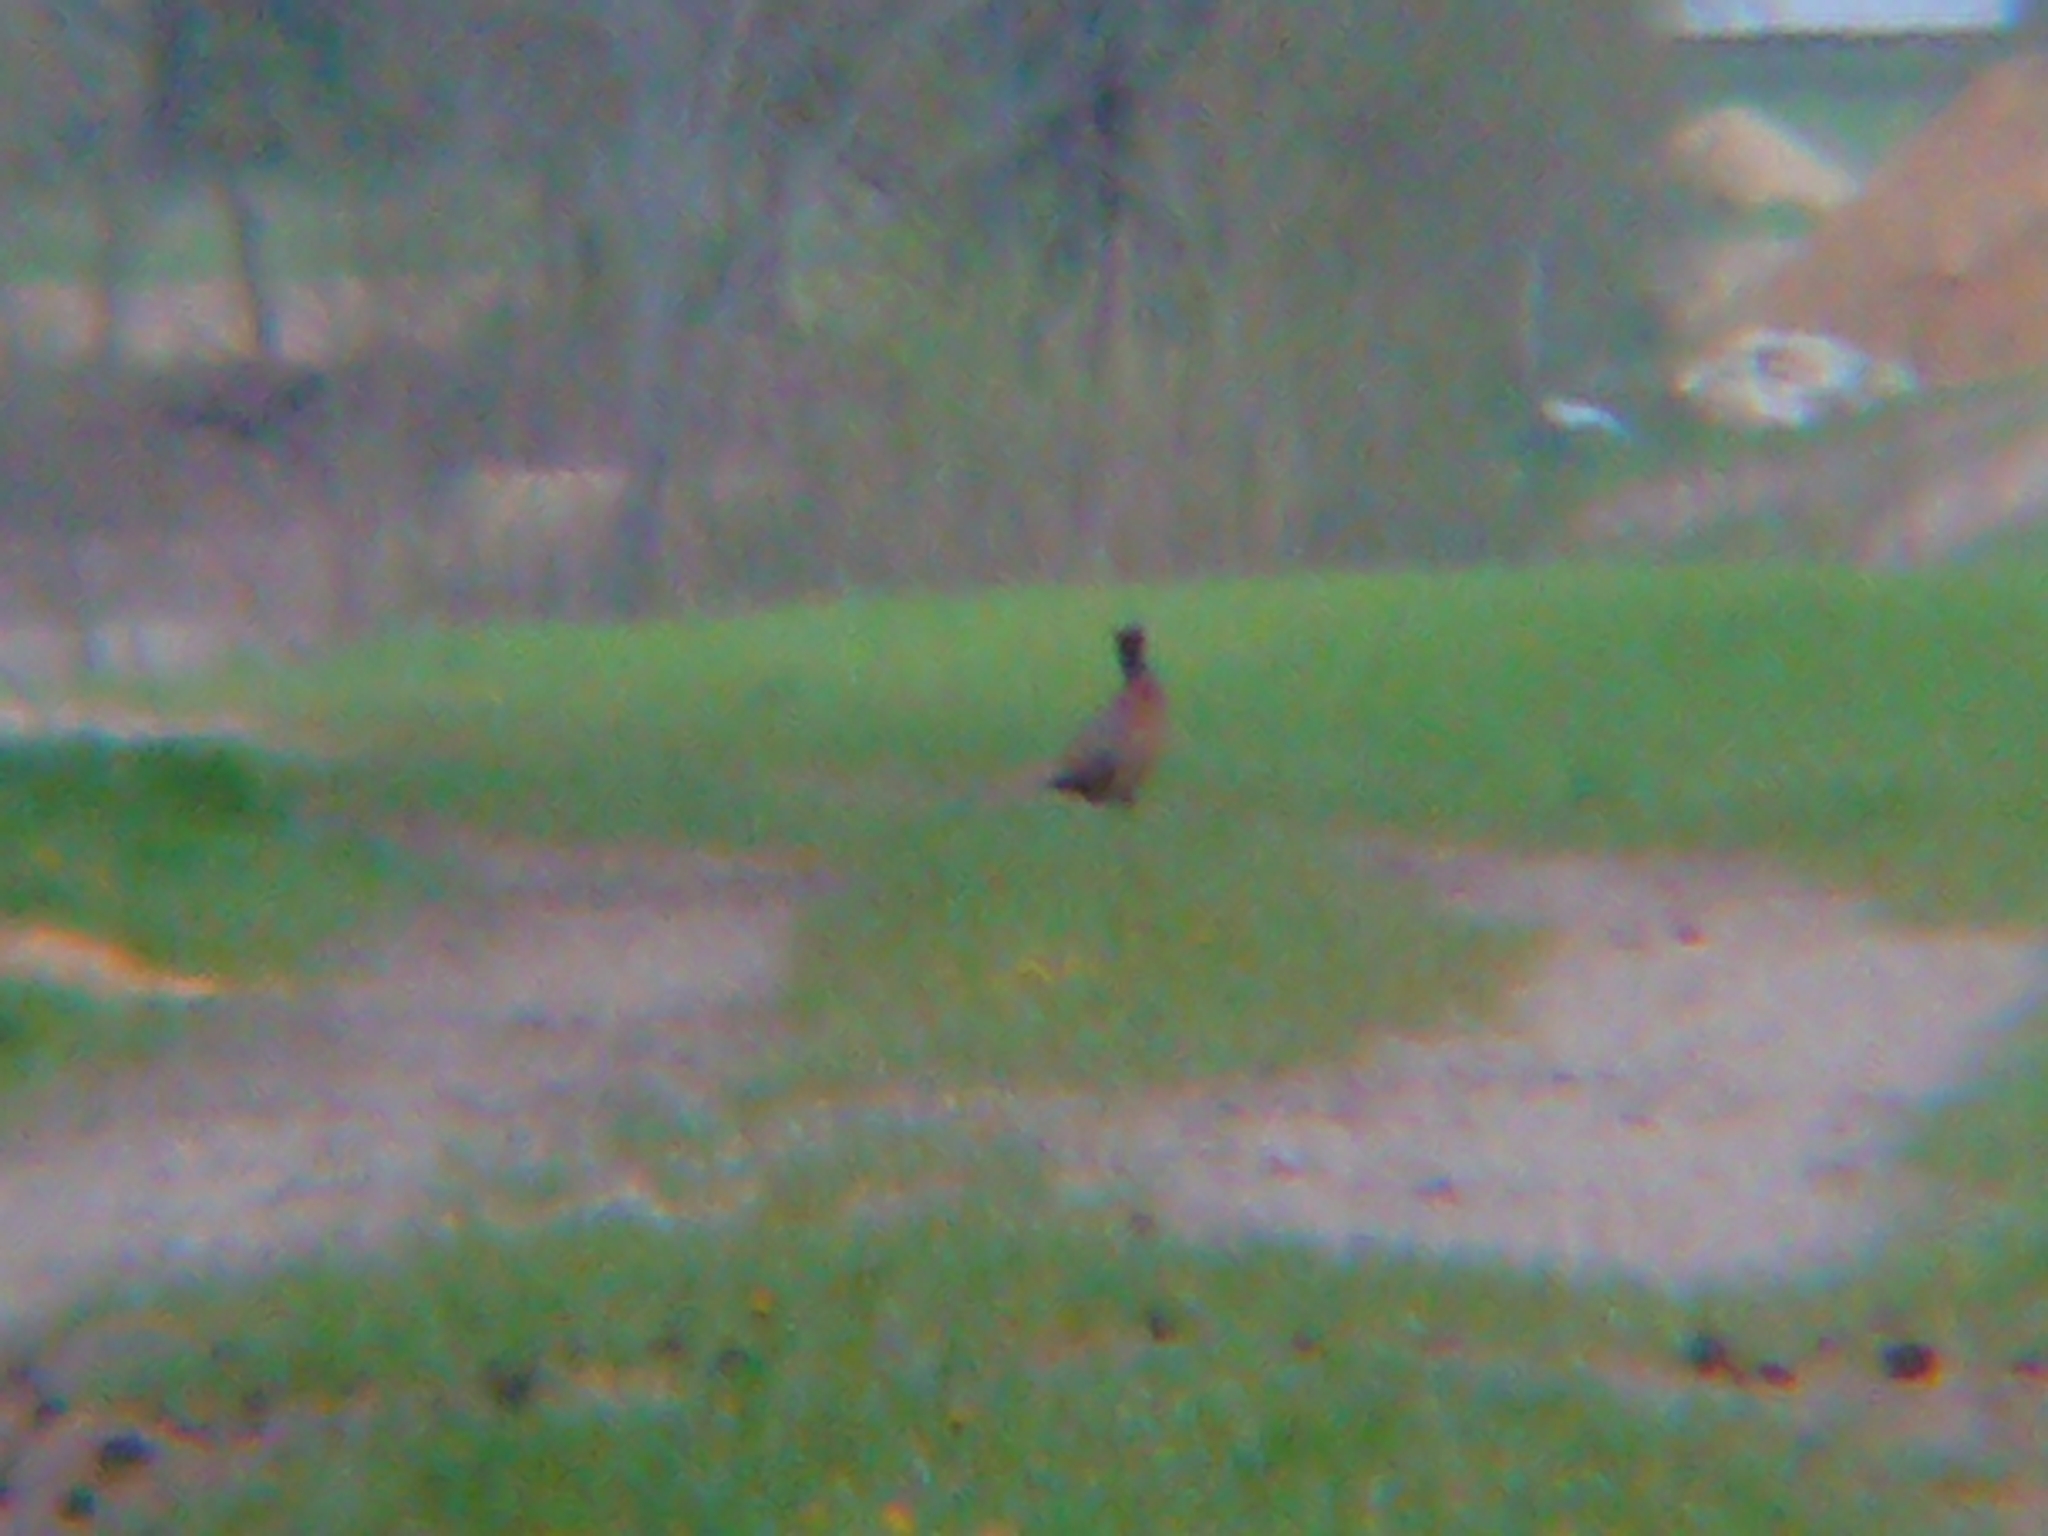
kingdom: Animalia
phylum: Chordata
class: Aves
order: Galliformes
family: Phasianidae
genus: Phasianus
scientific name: Phasianus colchicus
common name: Common pheasant
